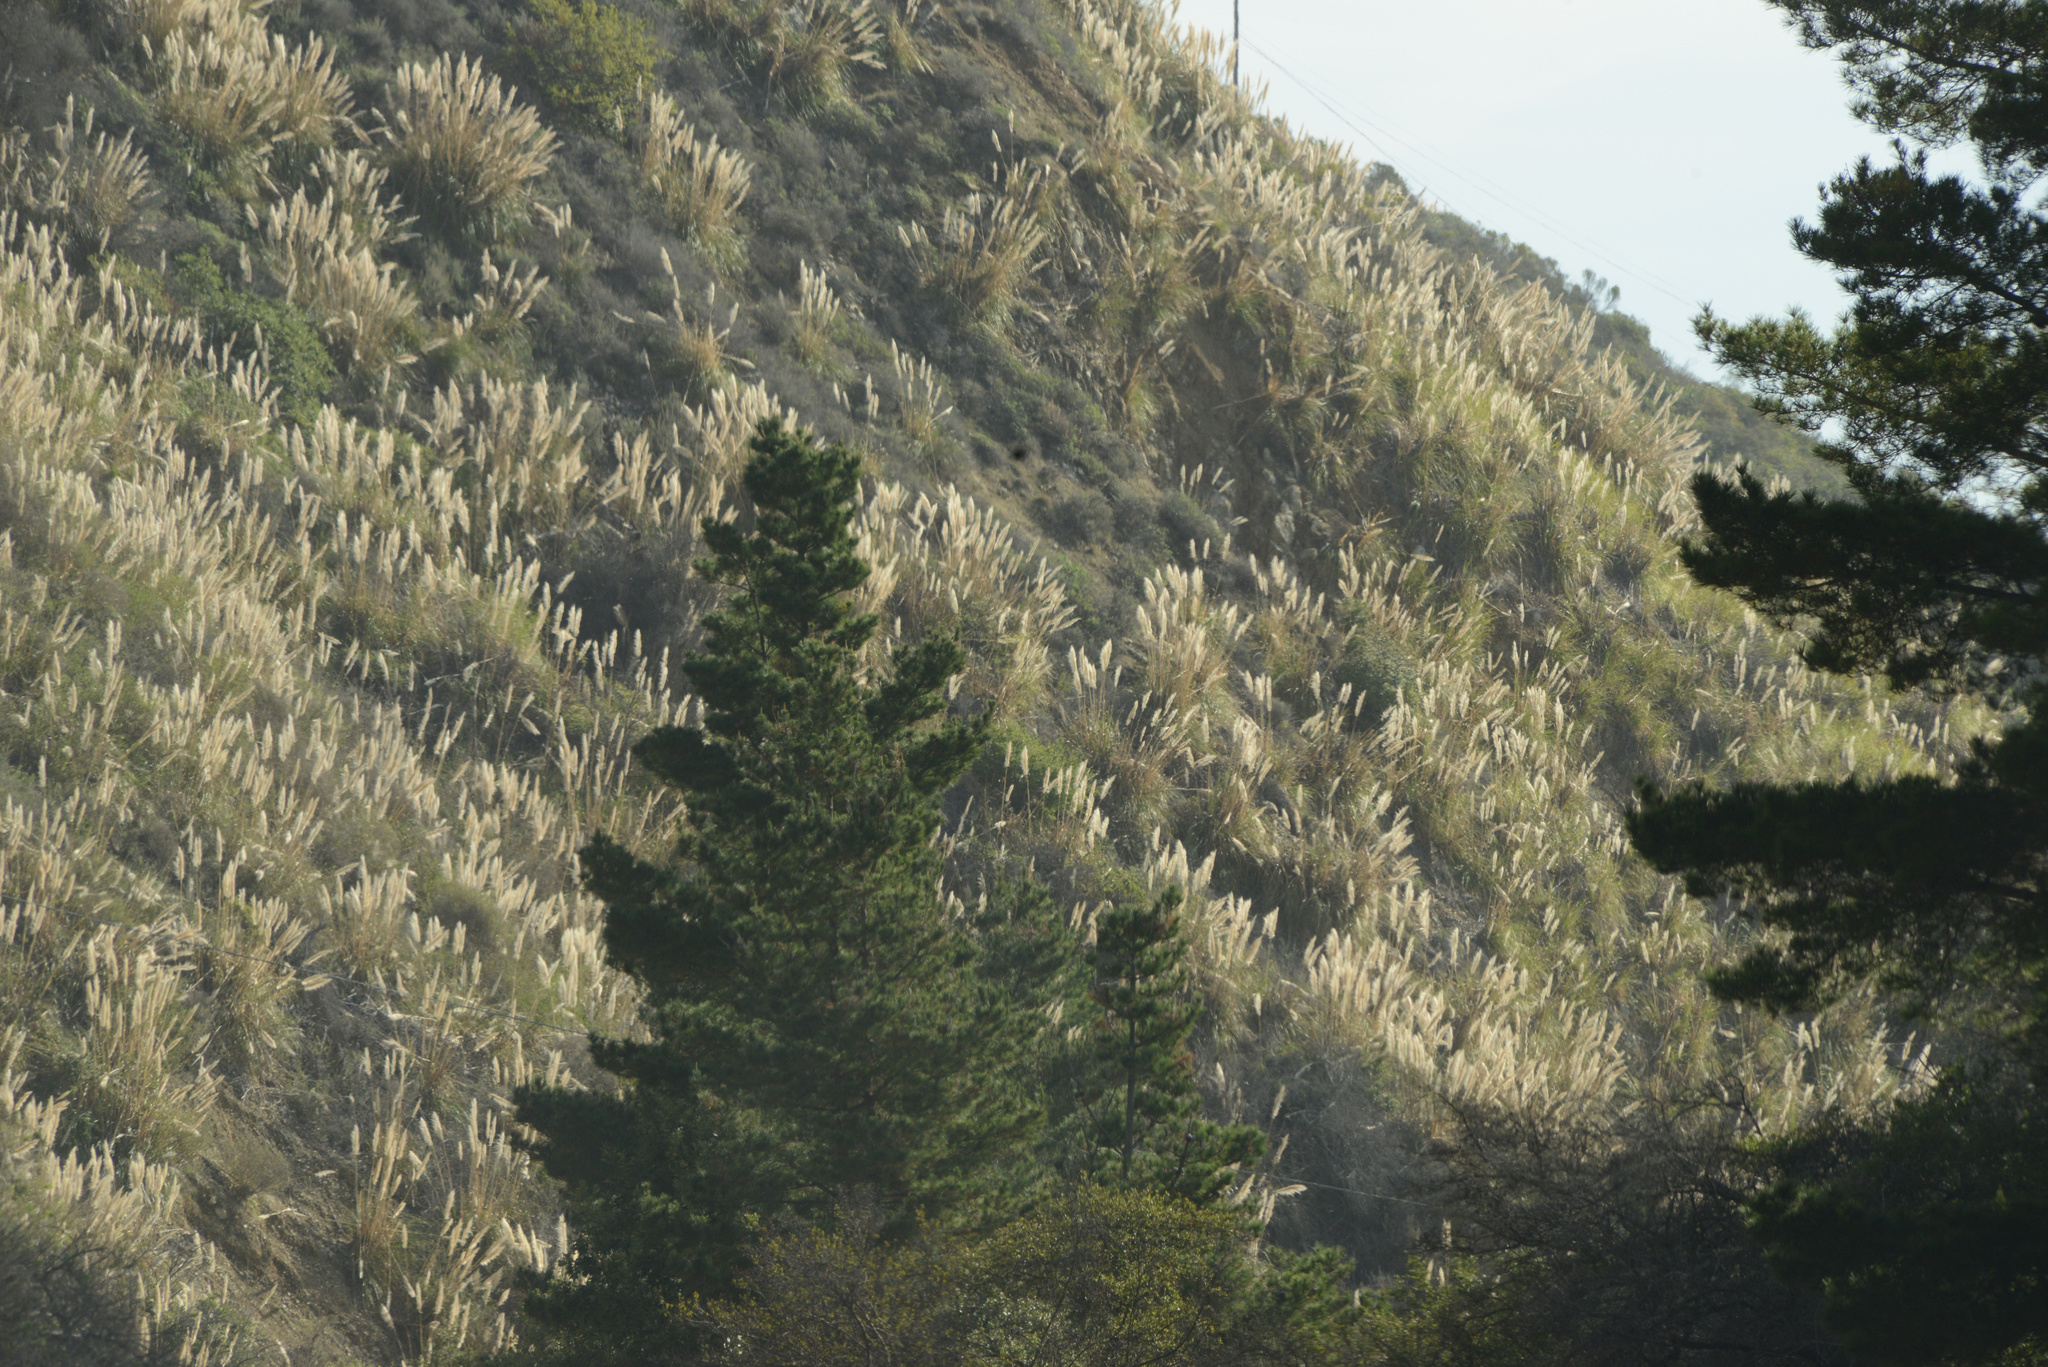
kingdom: Plantae
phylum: Tracheophyta
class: Liliopsida
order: Poales
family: Poaceae
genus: Cortaderia
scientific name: Cortaderia selloana
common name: Uruguayan pampas grass
